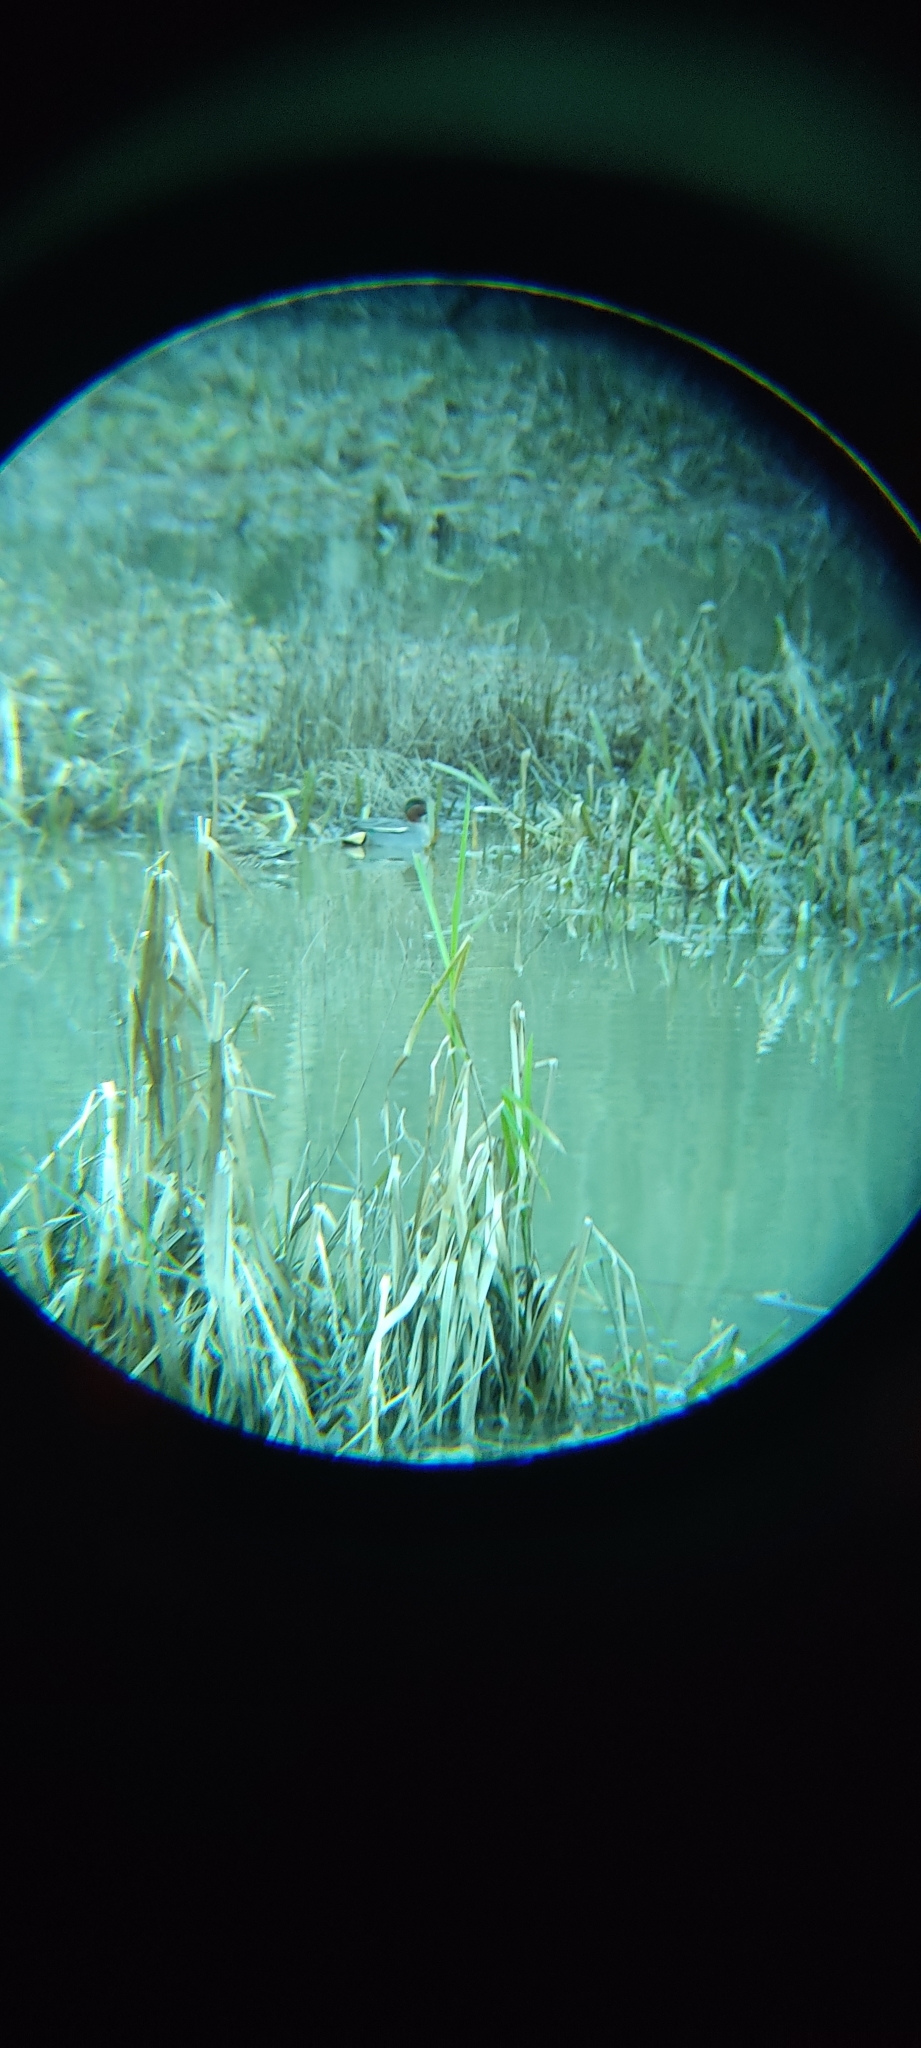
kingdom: Animalia
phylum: Chordata
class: Aves
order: Anseriformes
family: Anatidae
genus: Anas
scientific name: Anas crecca
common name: Eurasian teal
